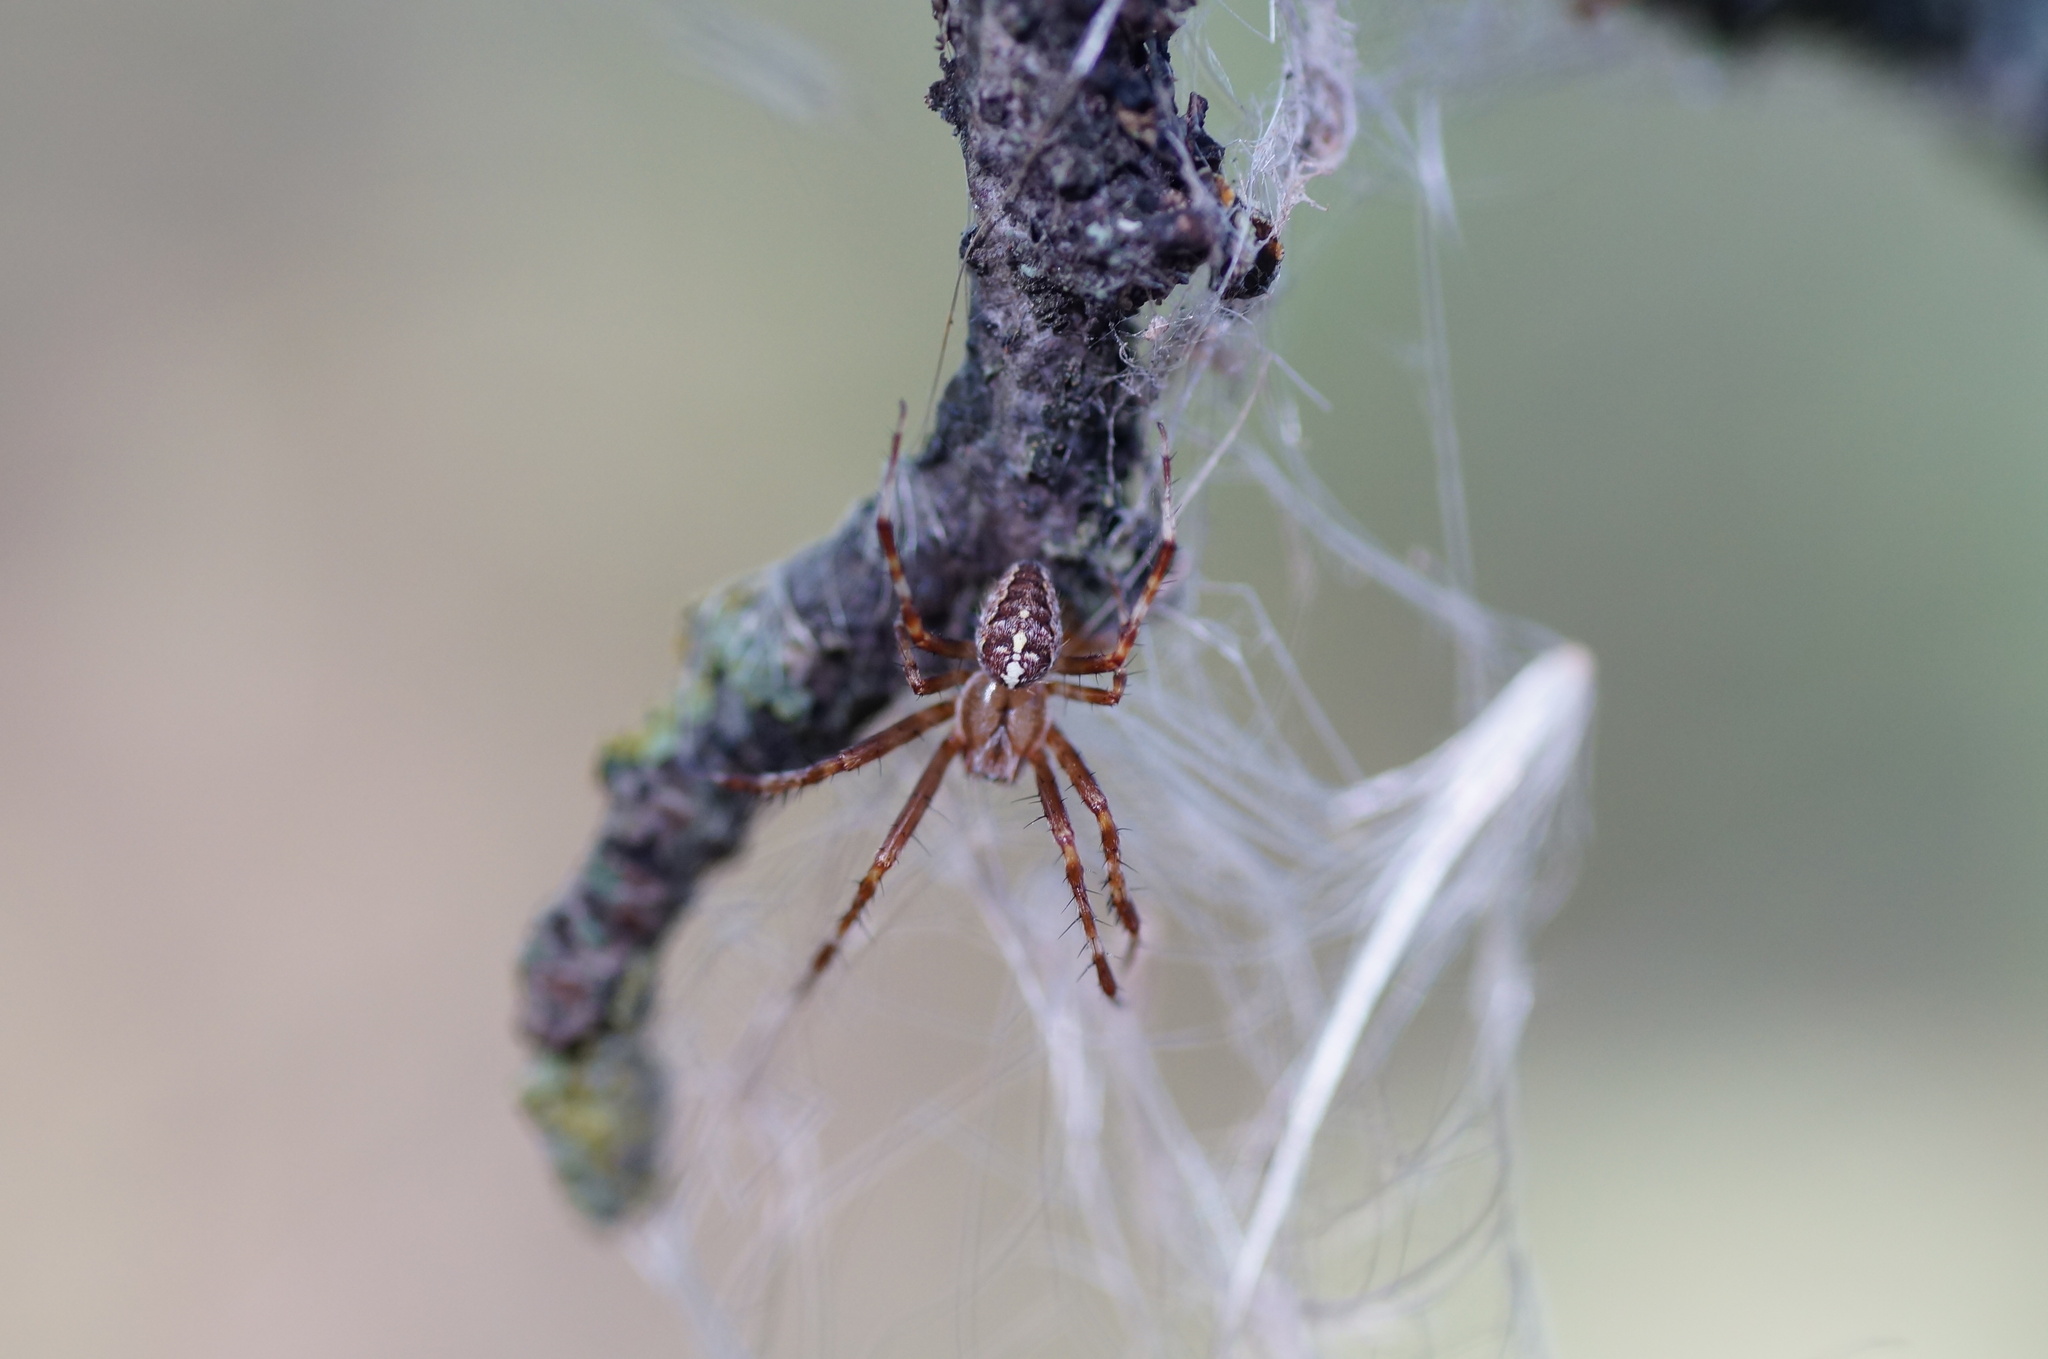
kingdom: Animalia
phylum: Arthropoda
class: Arachnida
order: Araneae
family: Araneidae
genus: Araneus
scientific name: Araneus diadematus
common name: Cross orbweaver
